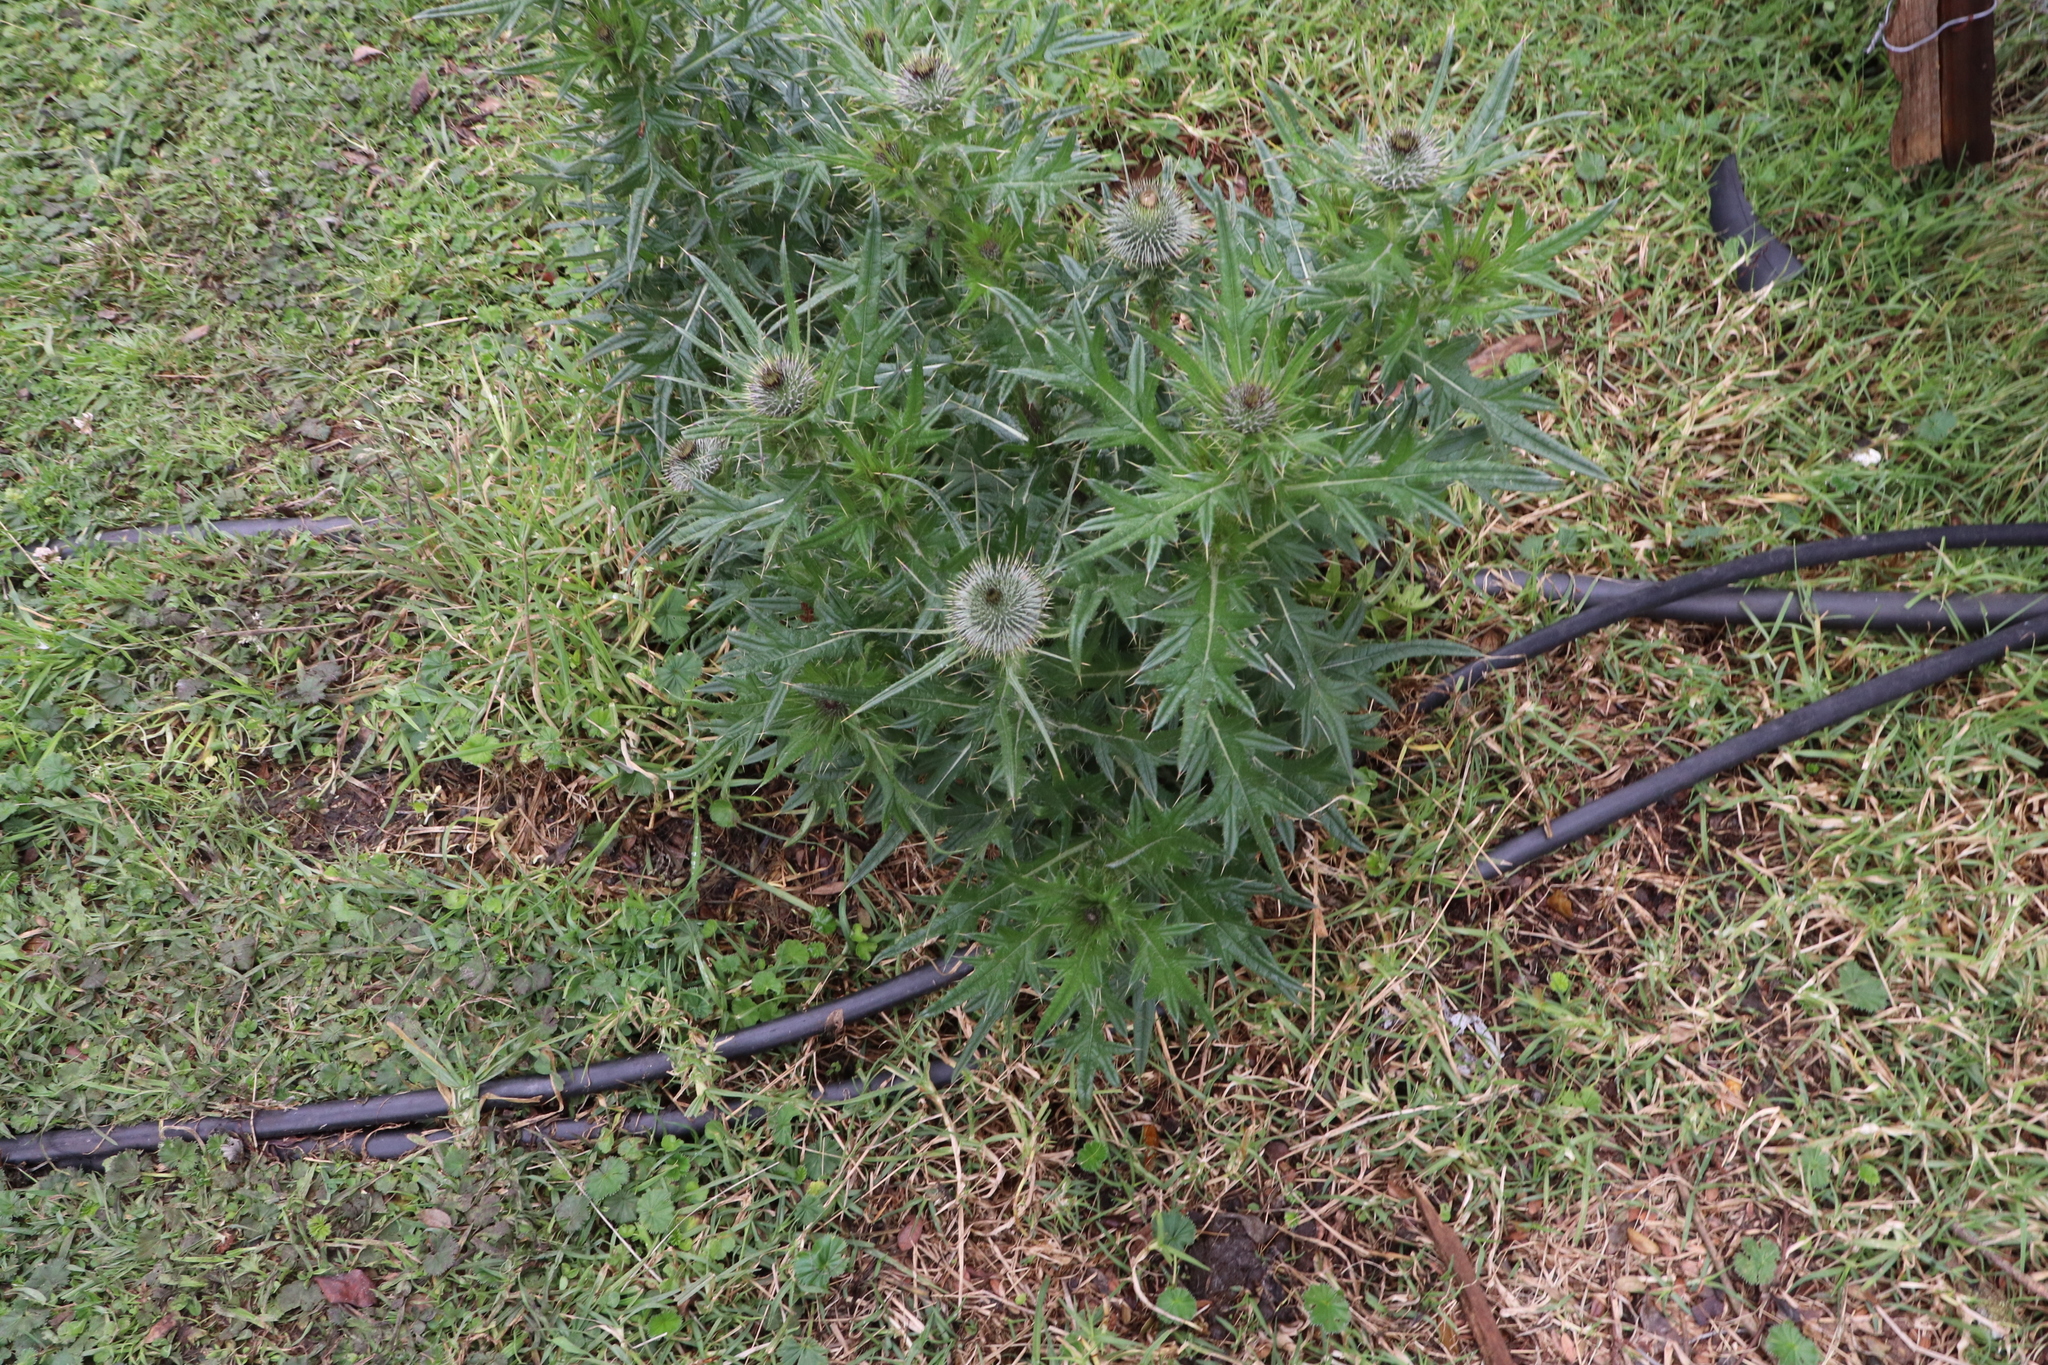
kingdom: Plantae
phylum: Tracheophyta
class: Magnoliopsida
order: Asterales
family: Asteraceae
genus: Cirsium
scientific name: Cirsium vulgare
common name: Bull thistle
